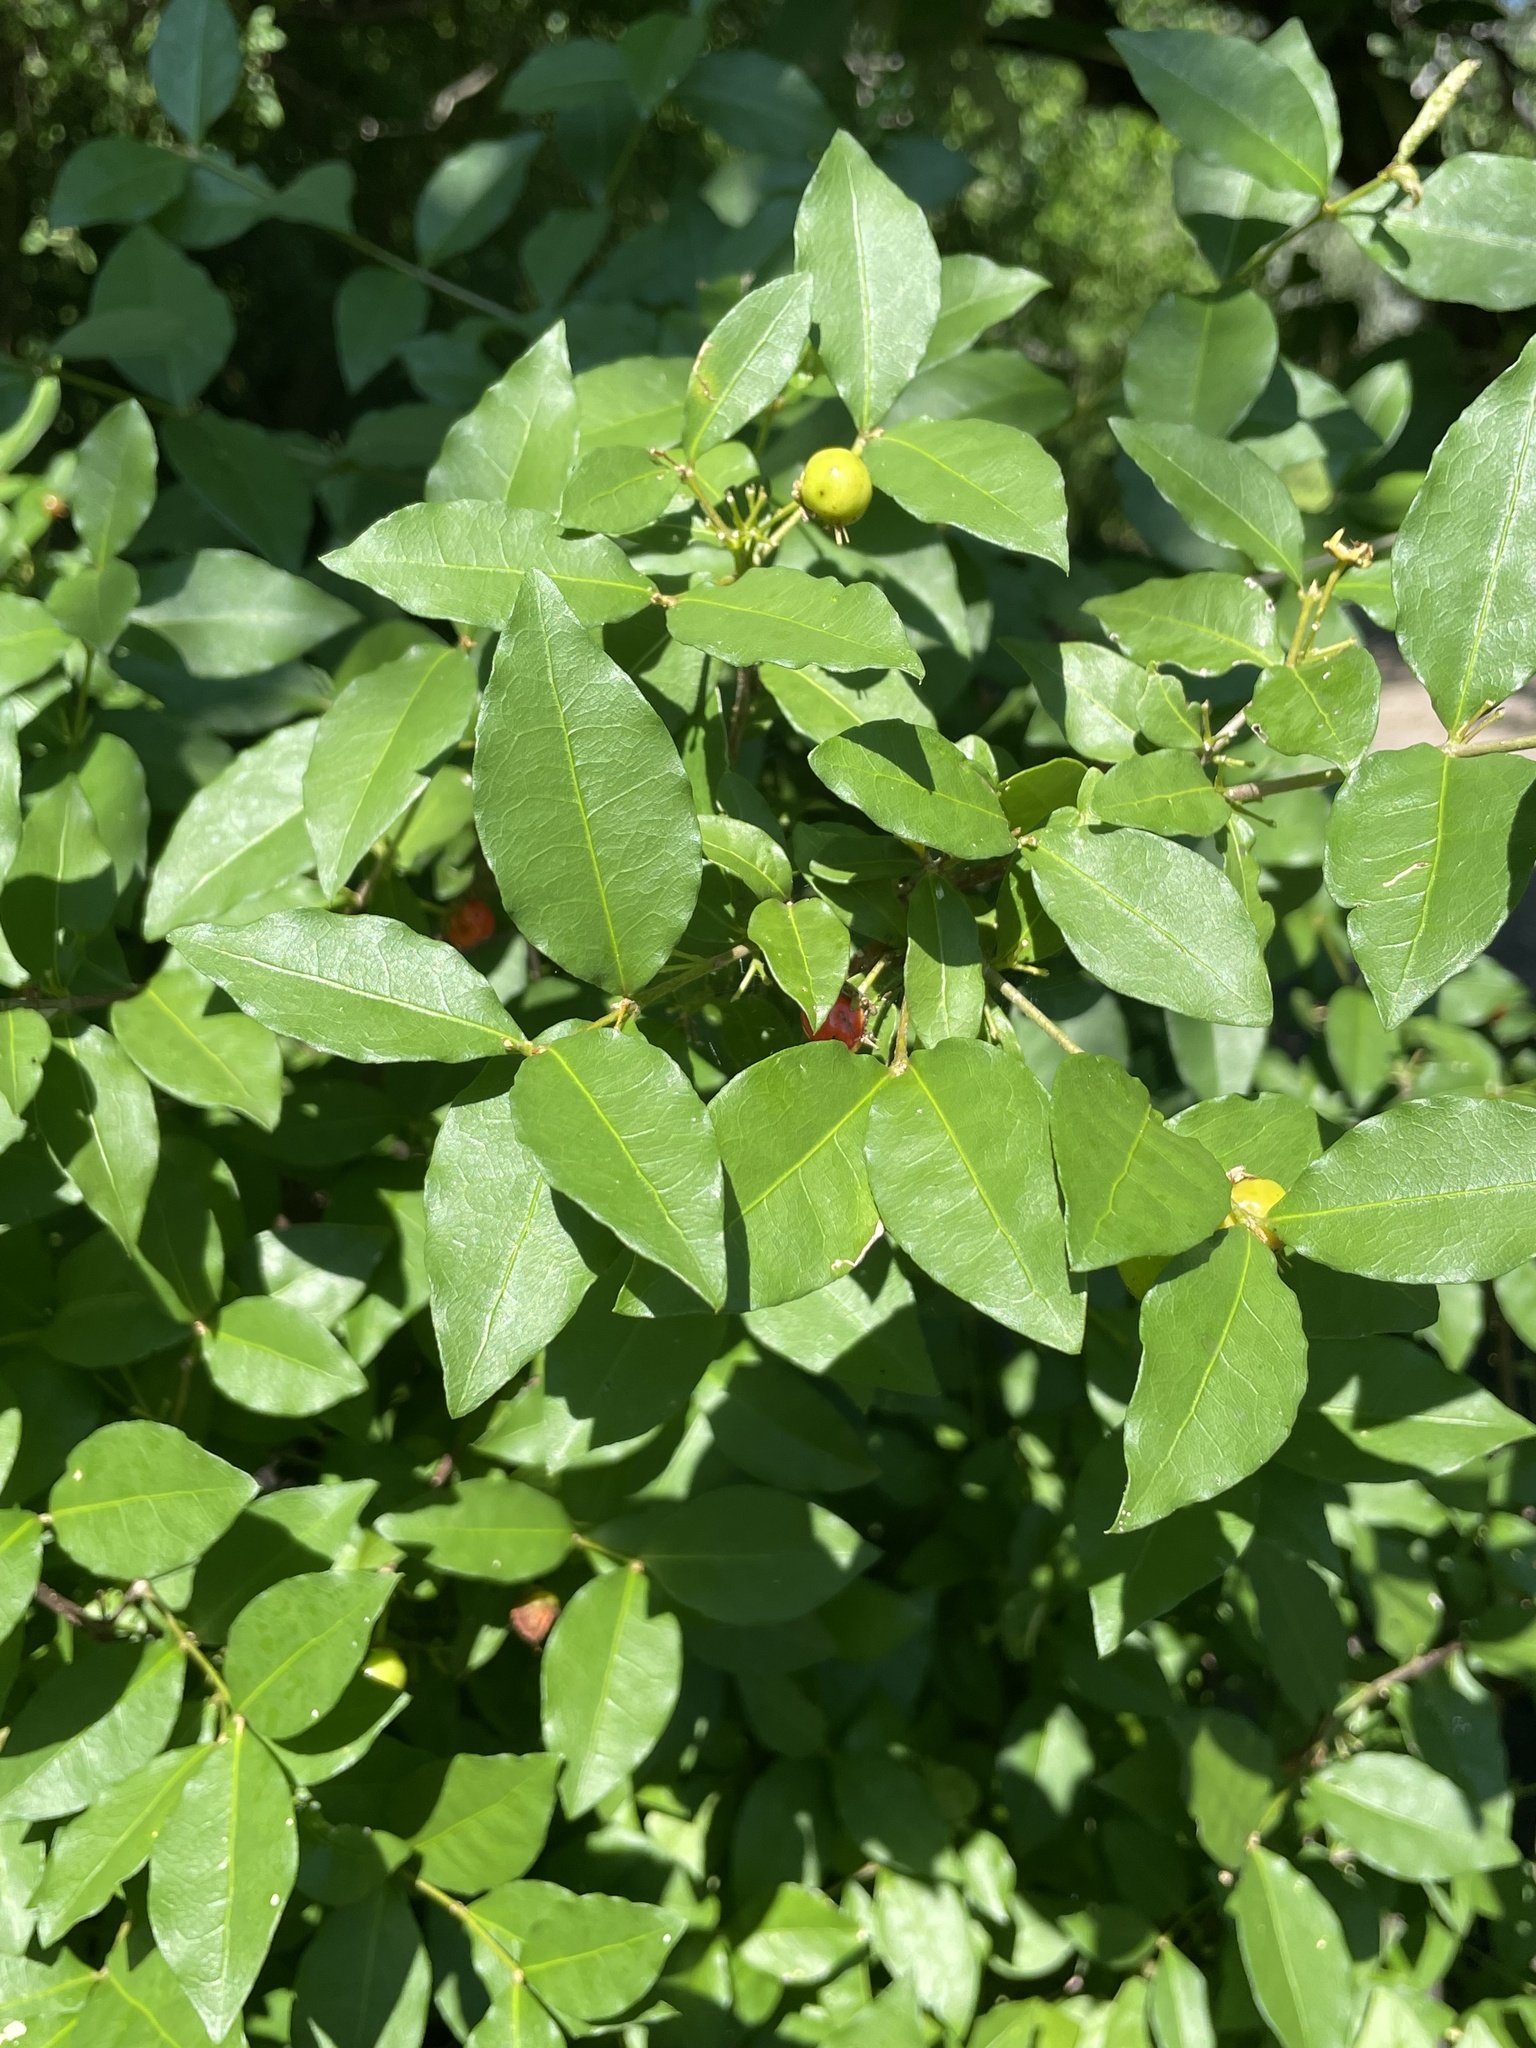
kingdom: Plantae
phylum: Tracheophyta
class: Magnoliopsida
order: Malpighiales
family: Malpighiaceae
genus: Malpighia
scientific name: Malpighia glabra
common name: Barbados cherry
